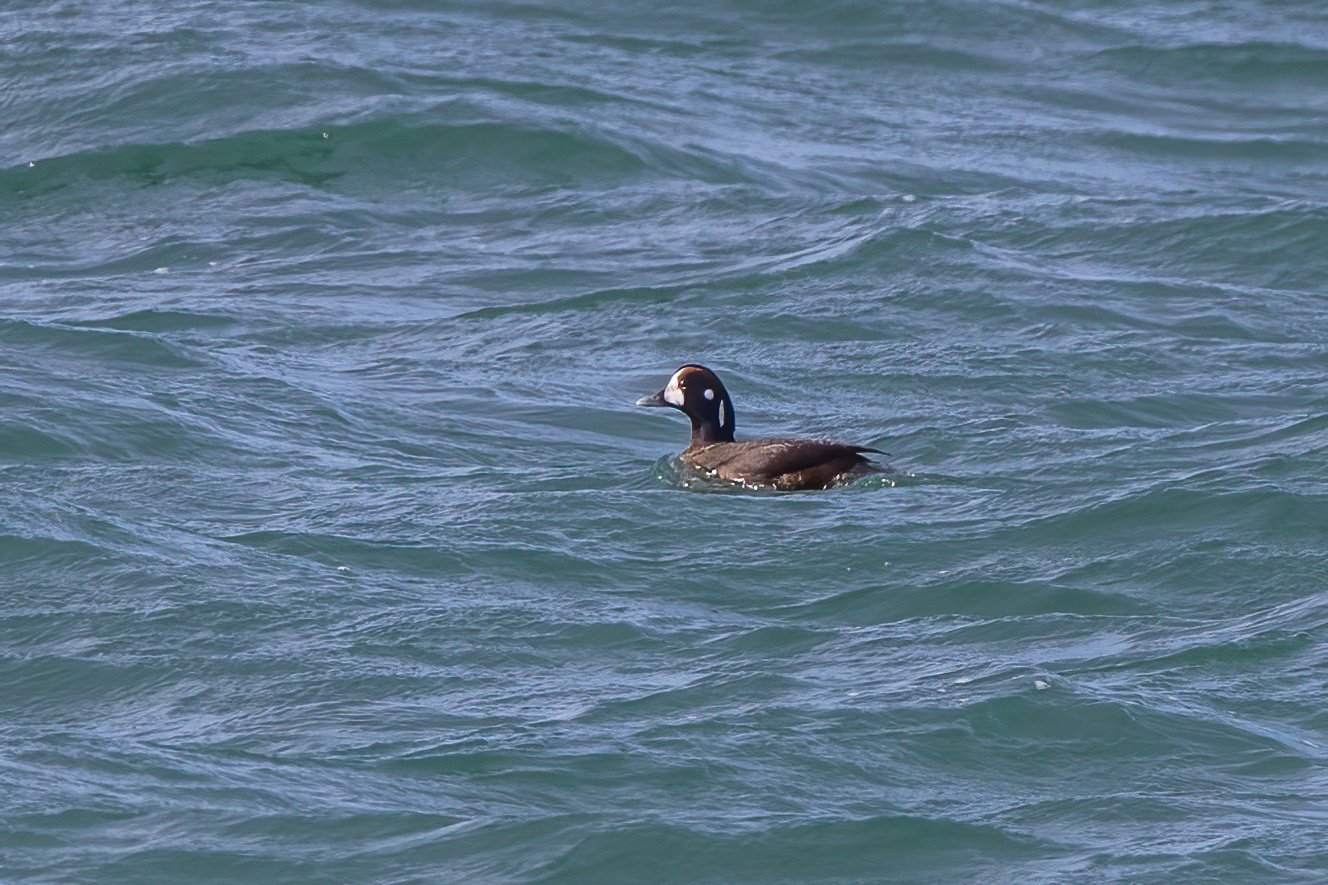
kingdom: Animalia
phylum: Chordata
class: Aves
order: Anseriformes
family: Anatidae
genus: Histrionicus
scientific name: Histrionicus histrionicus
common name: Harlequin duck
